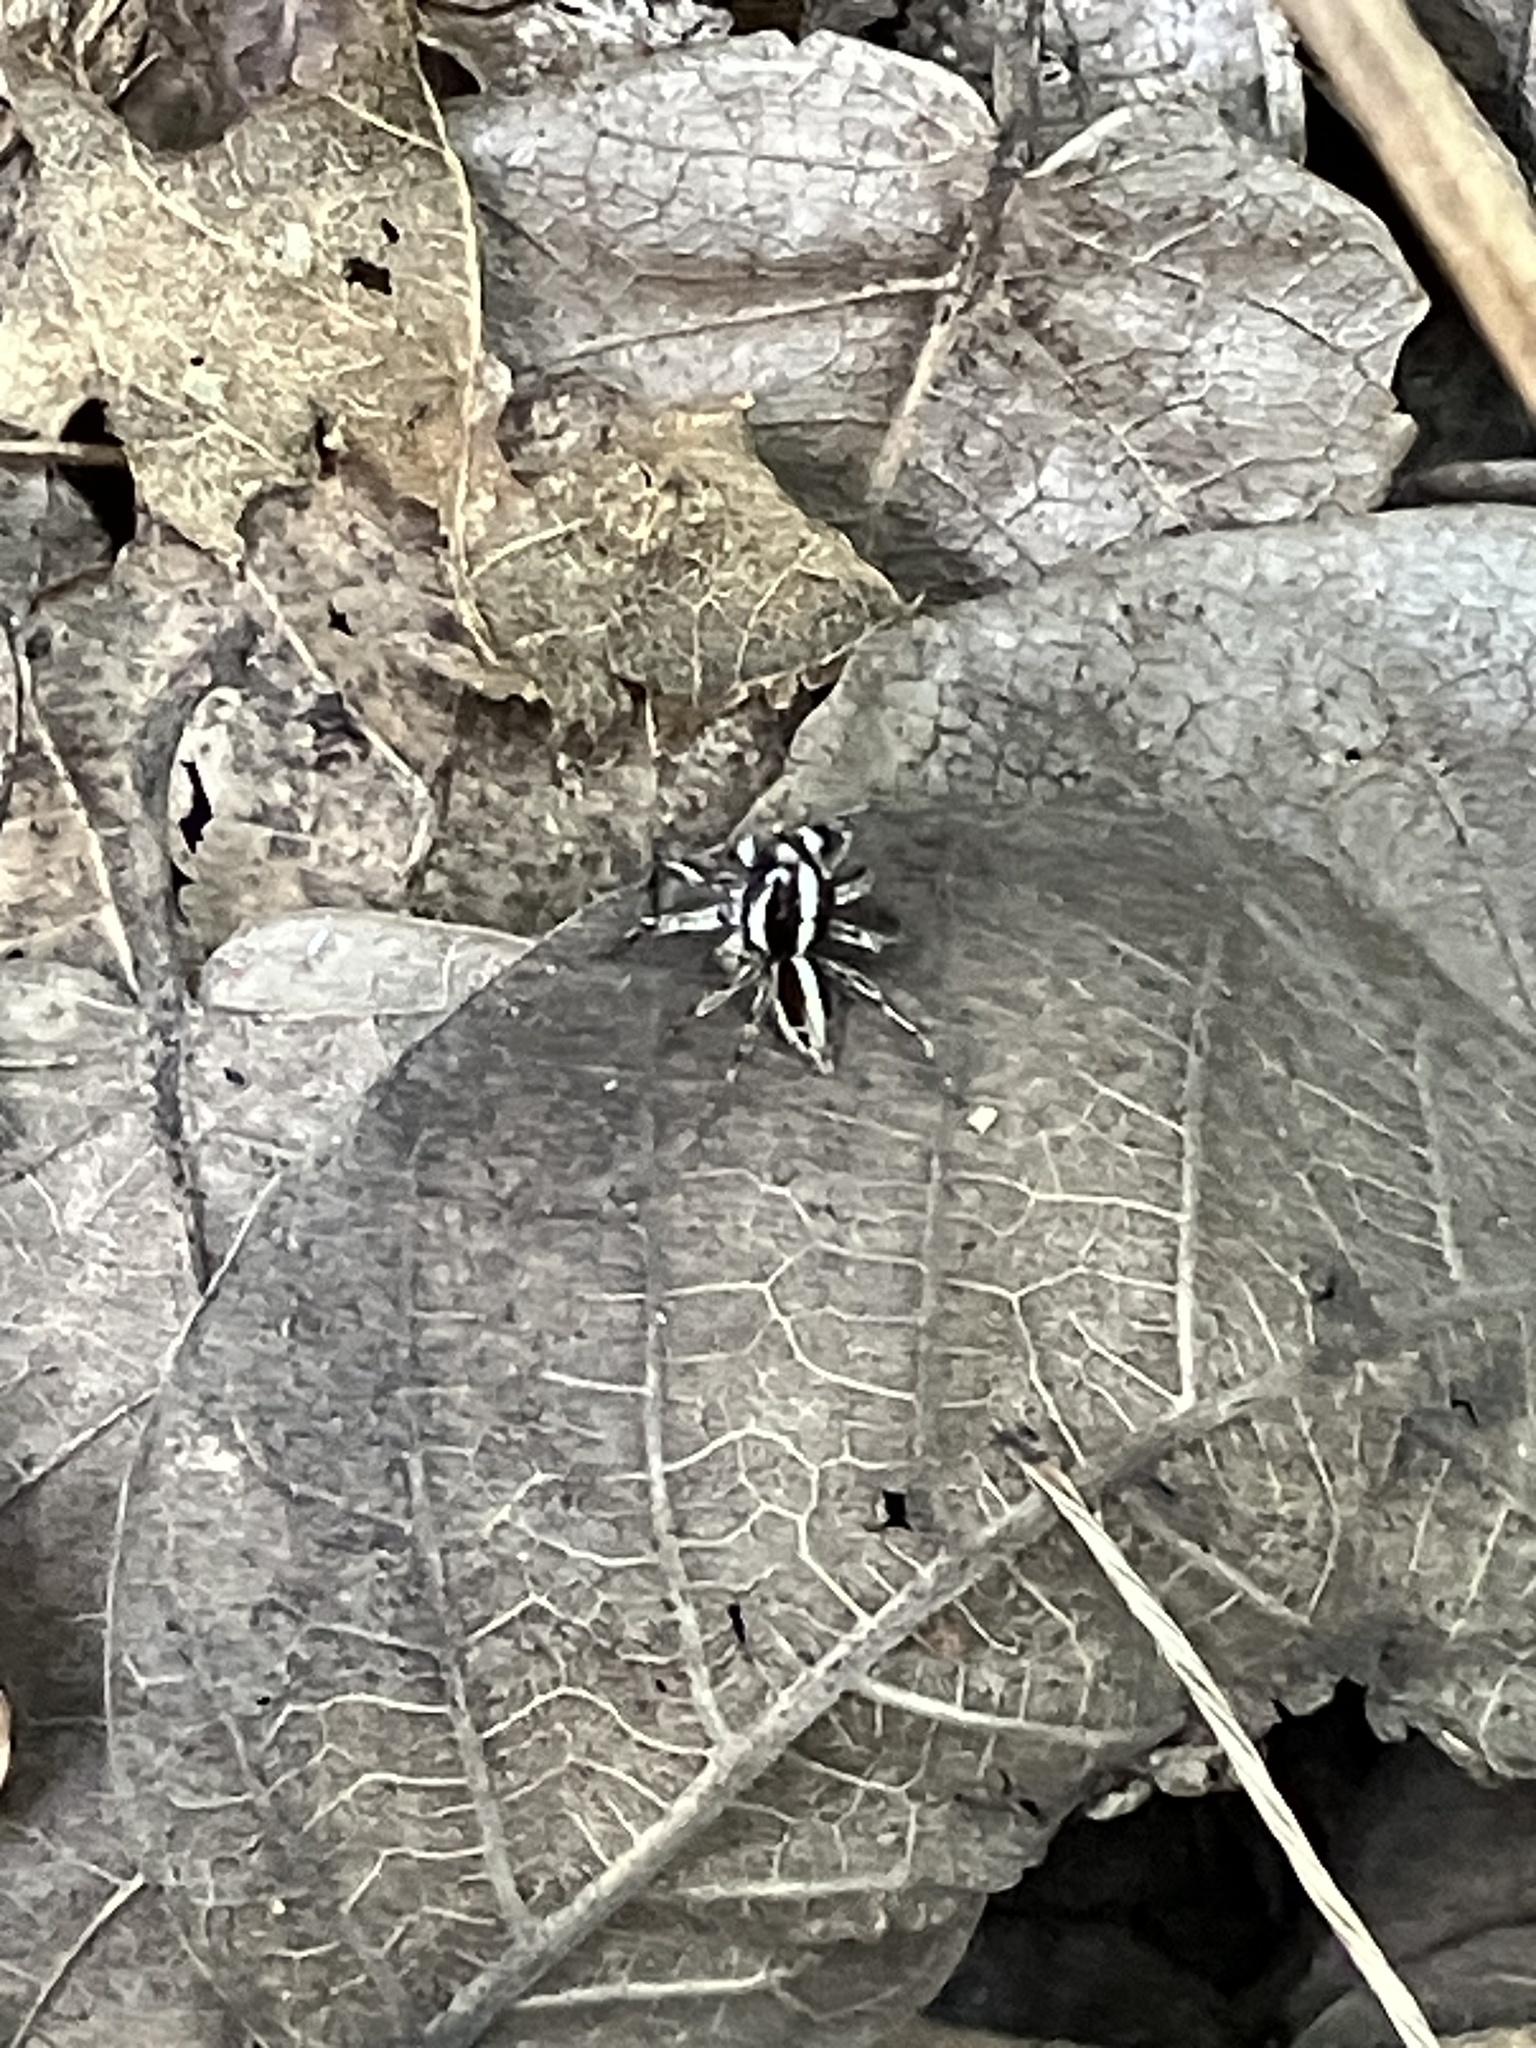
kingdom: Animalia
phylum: Arthropoda
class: Arachnida
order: Araneae
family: Salticidae
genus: Plexippus
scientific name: Plexippus paykulli
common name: Pantropical jumper
